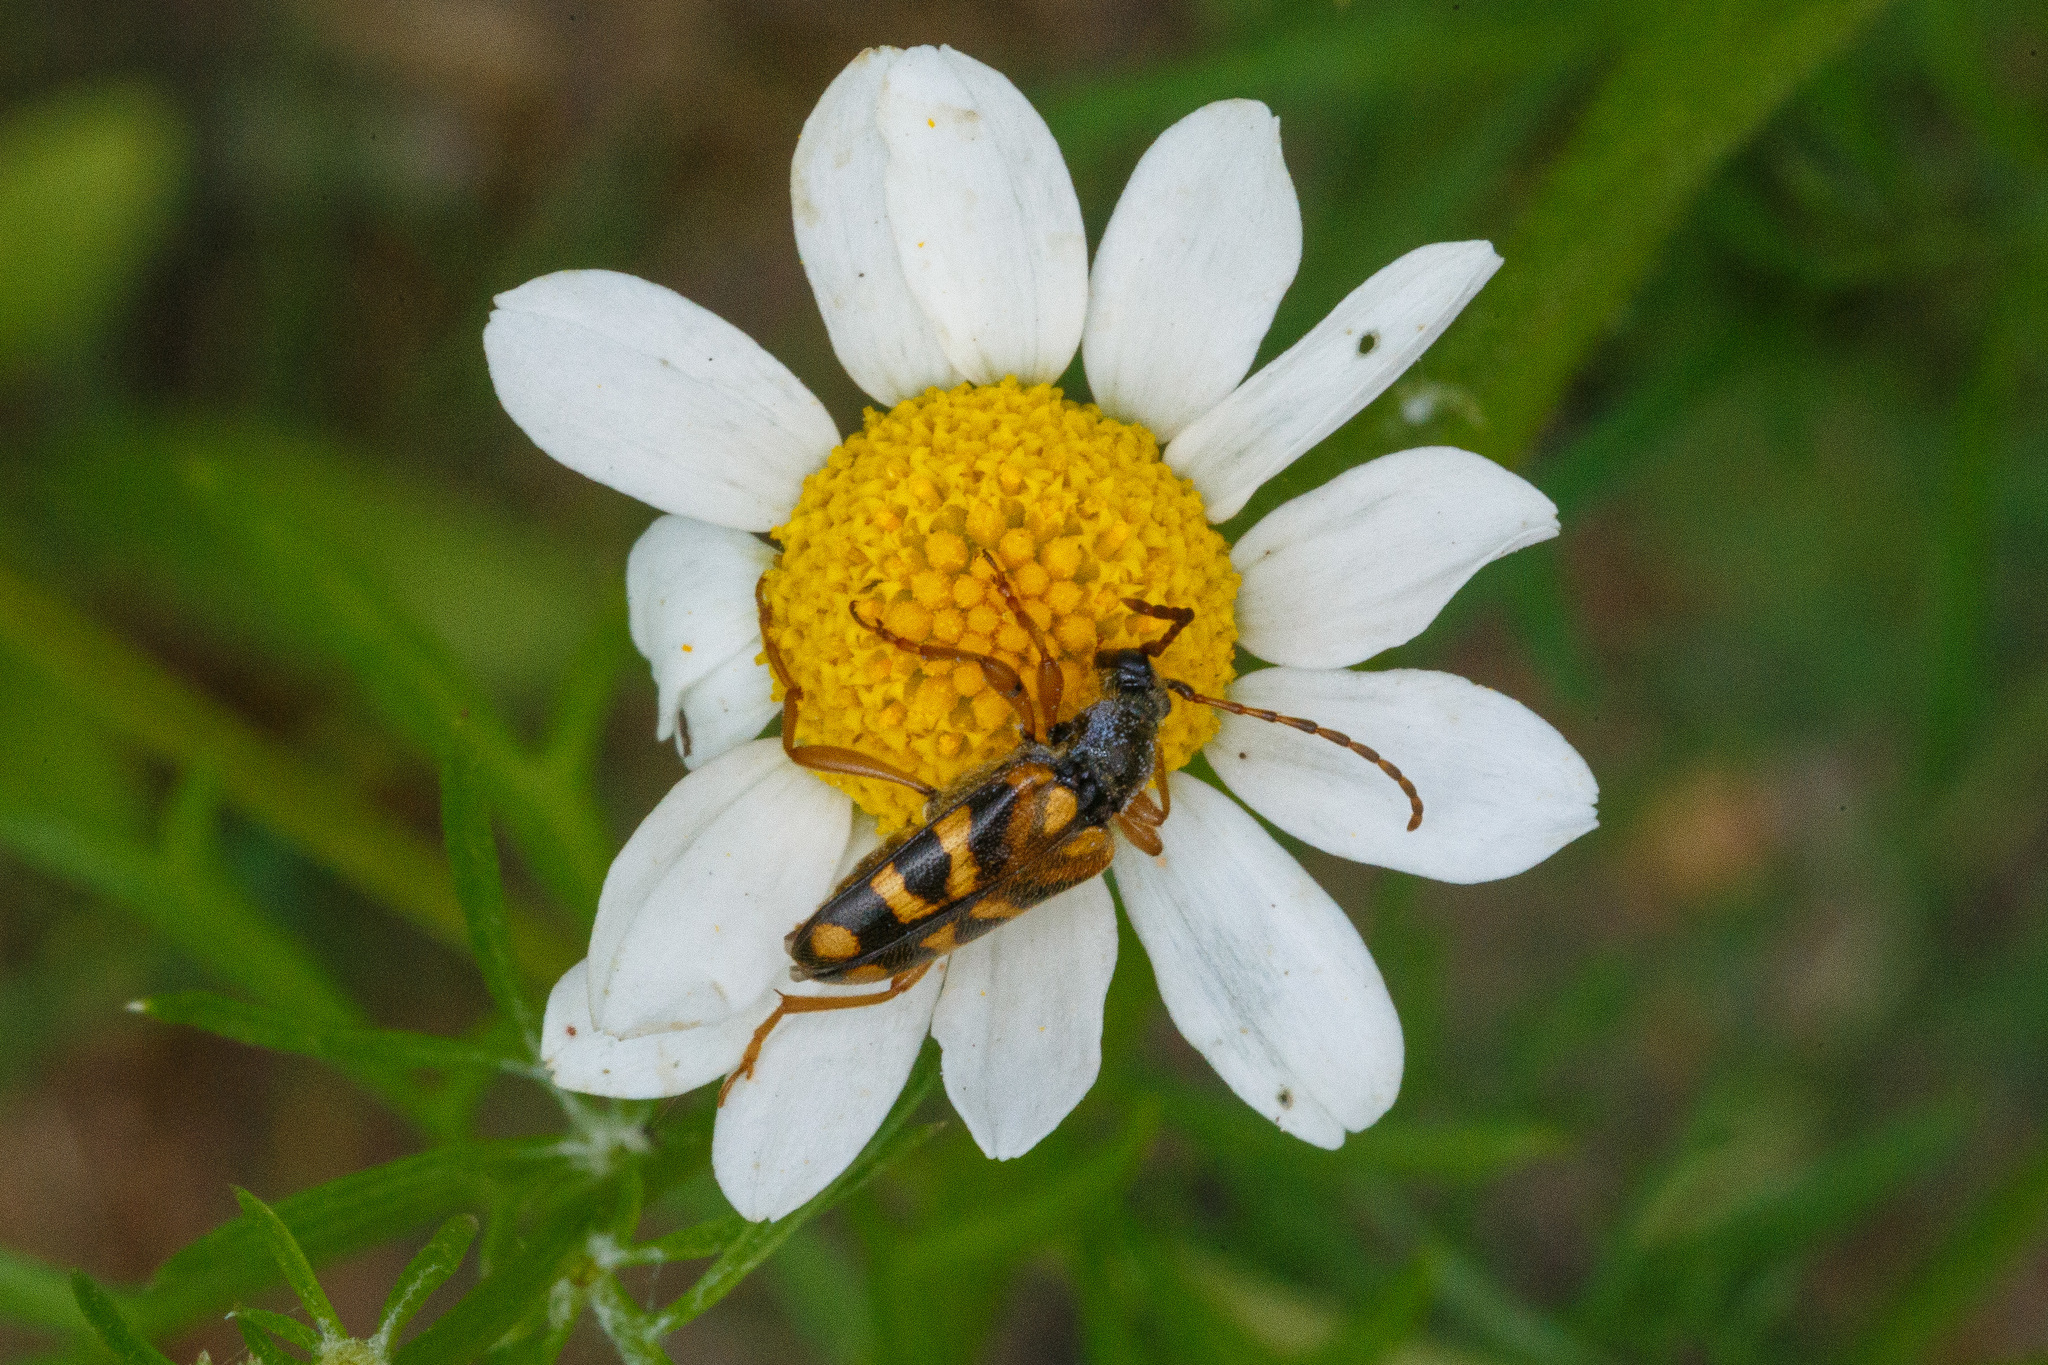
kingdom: Animalia
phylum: Arthropoda
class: Insecta
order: Coleoptera
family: Cerambycidae
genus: Xestoleptura
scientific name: Xestoleptura crassipes
